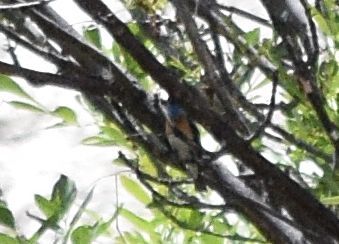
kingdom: Animalia
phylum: Chordata
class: Aves
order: Passeriformes
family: Cardinalidae
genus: Passerina
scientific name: Passerina amoena
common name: Lazuli bunting
